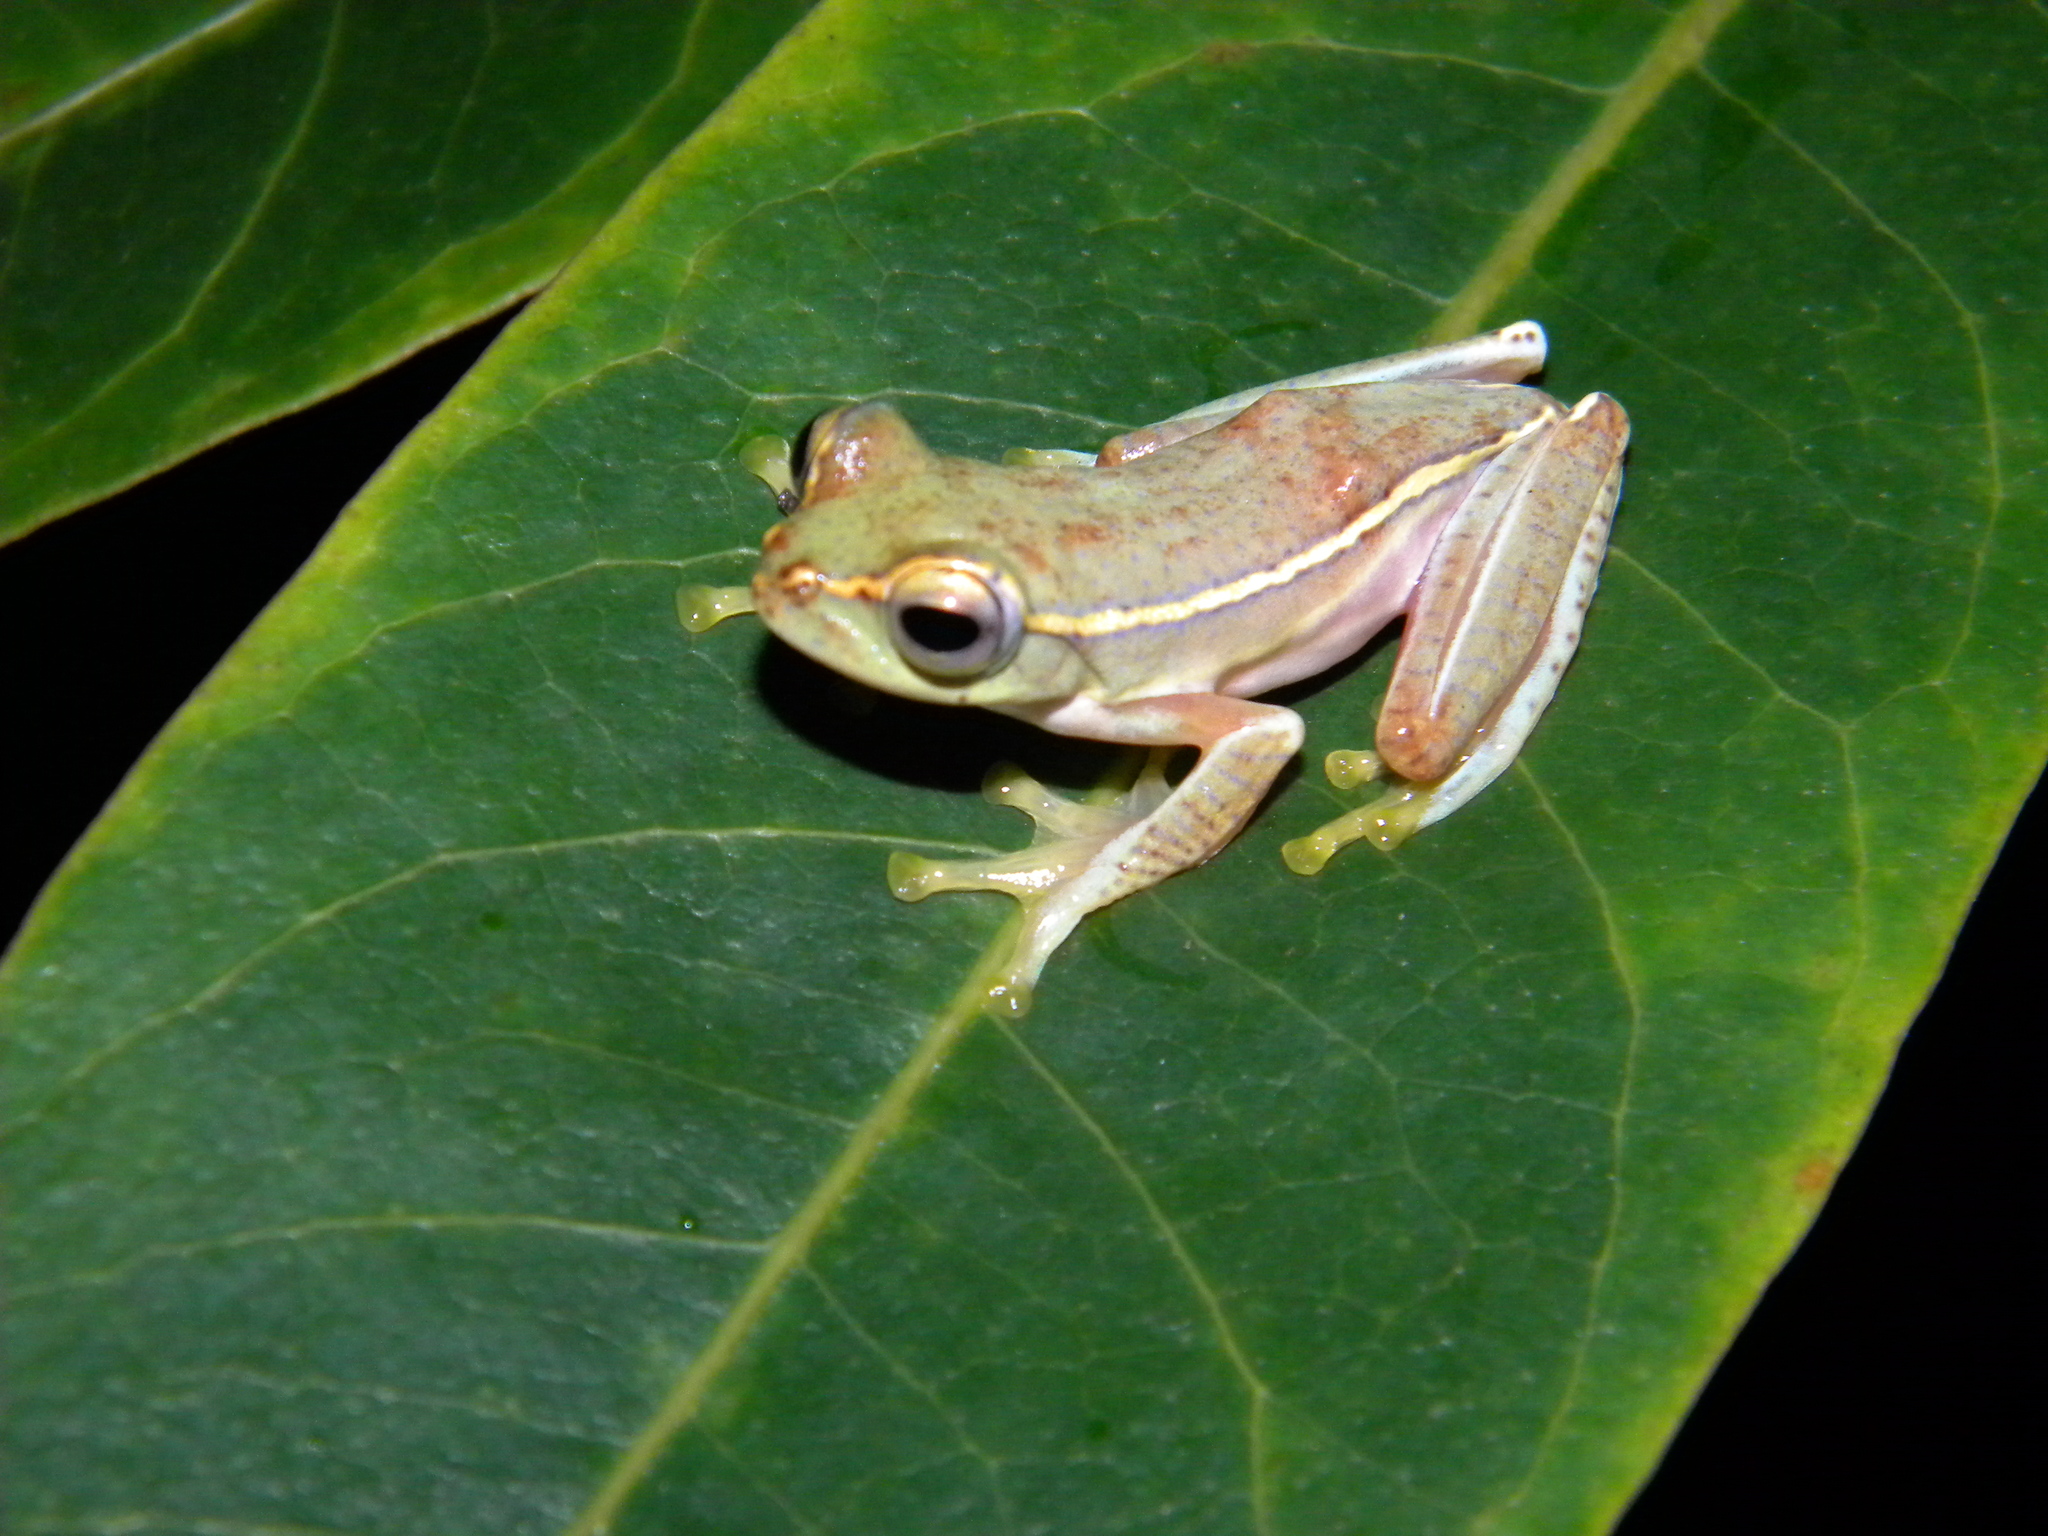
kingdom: Animalia
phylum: Chordata
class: Amphibia
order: Anura
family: Rhacophoridae
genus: Rhacophorus
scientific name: Rhacophorus lateralis
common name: Boulenger's tree frog
